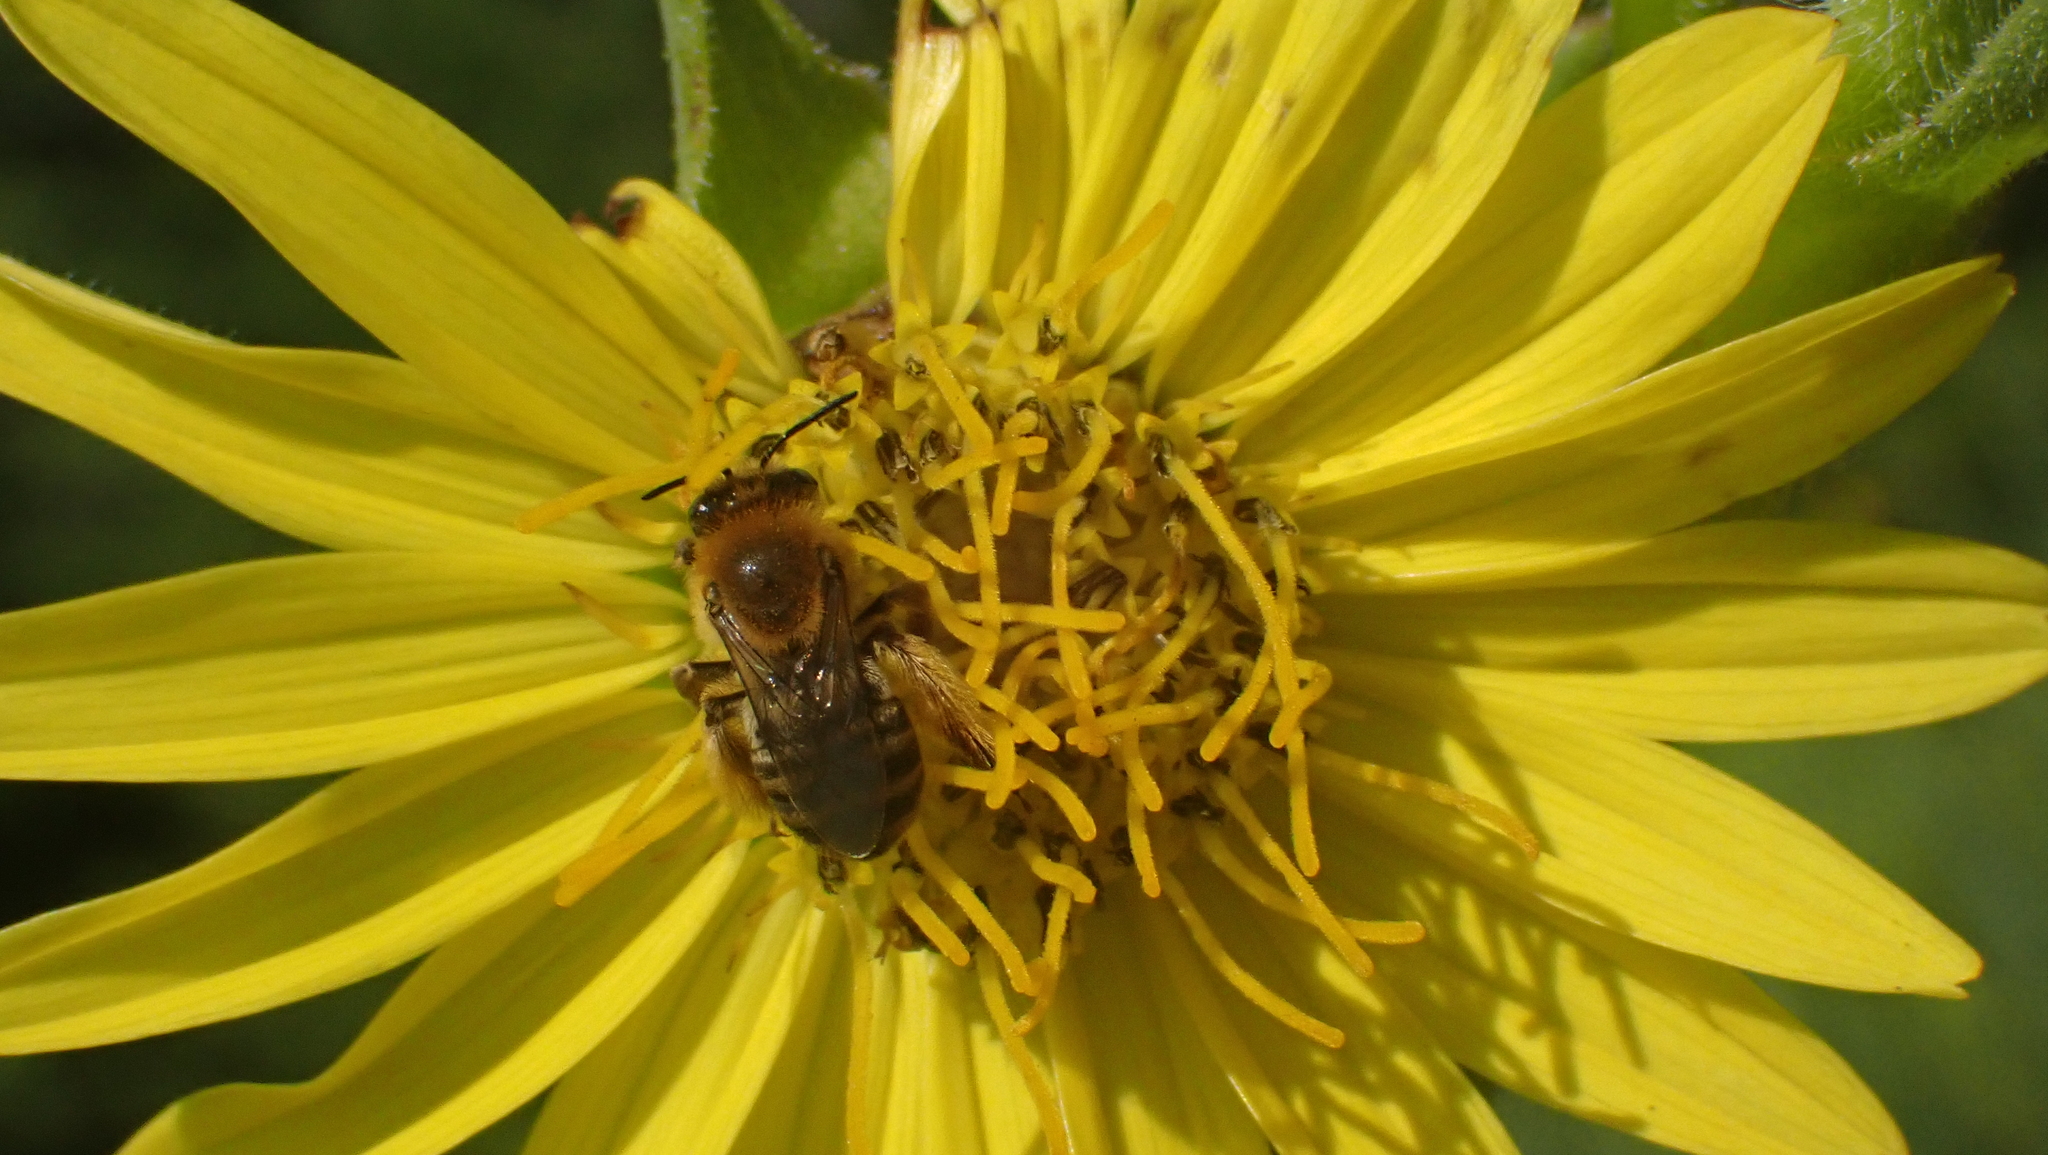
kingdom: Animalia
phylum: Arthropoda
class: Insecta
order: Hymenoptera
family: Apidae
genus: Melissodes
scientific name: Melissodes trinodis
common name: Dark-veined longhorn
